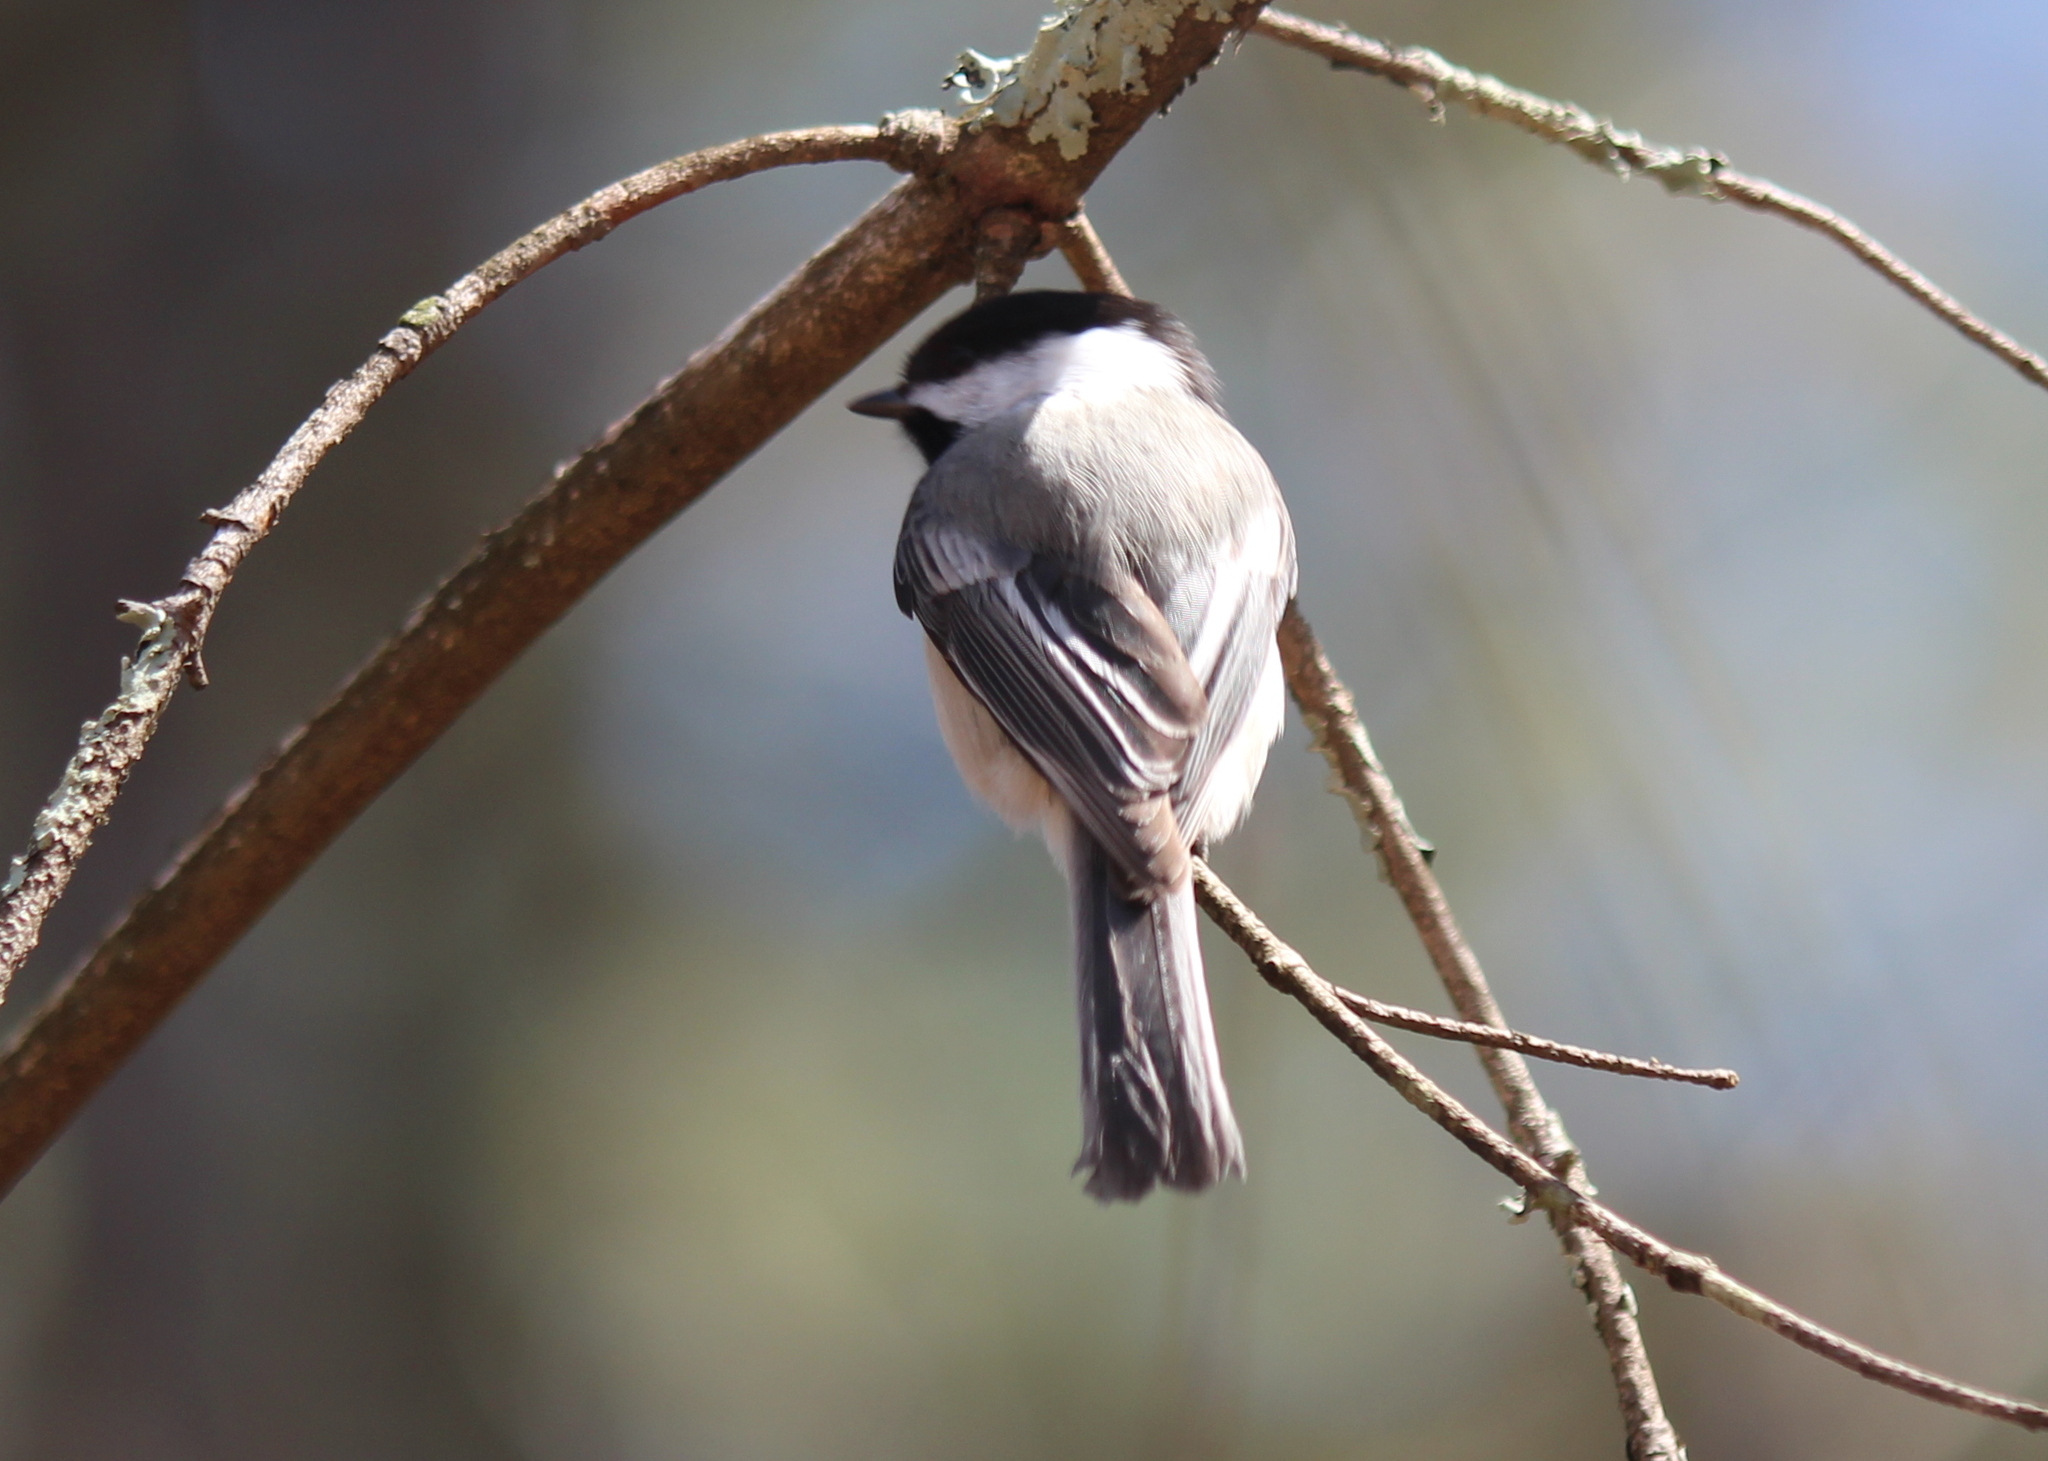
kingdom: Animalia
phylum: Chordata
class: Aves
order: Passeriformes
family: Paridae
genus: Poecile
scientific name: Poecile atricapillus
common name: Black-capped chickadee
